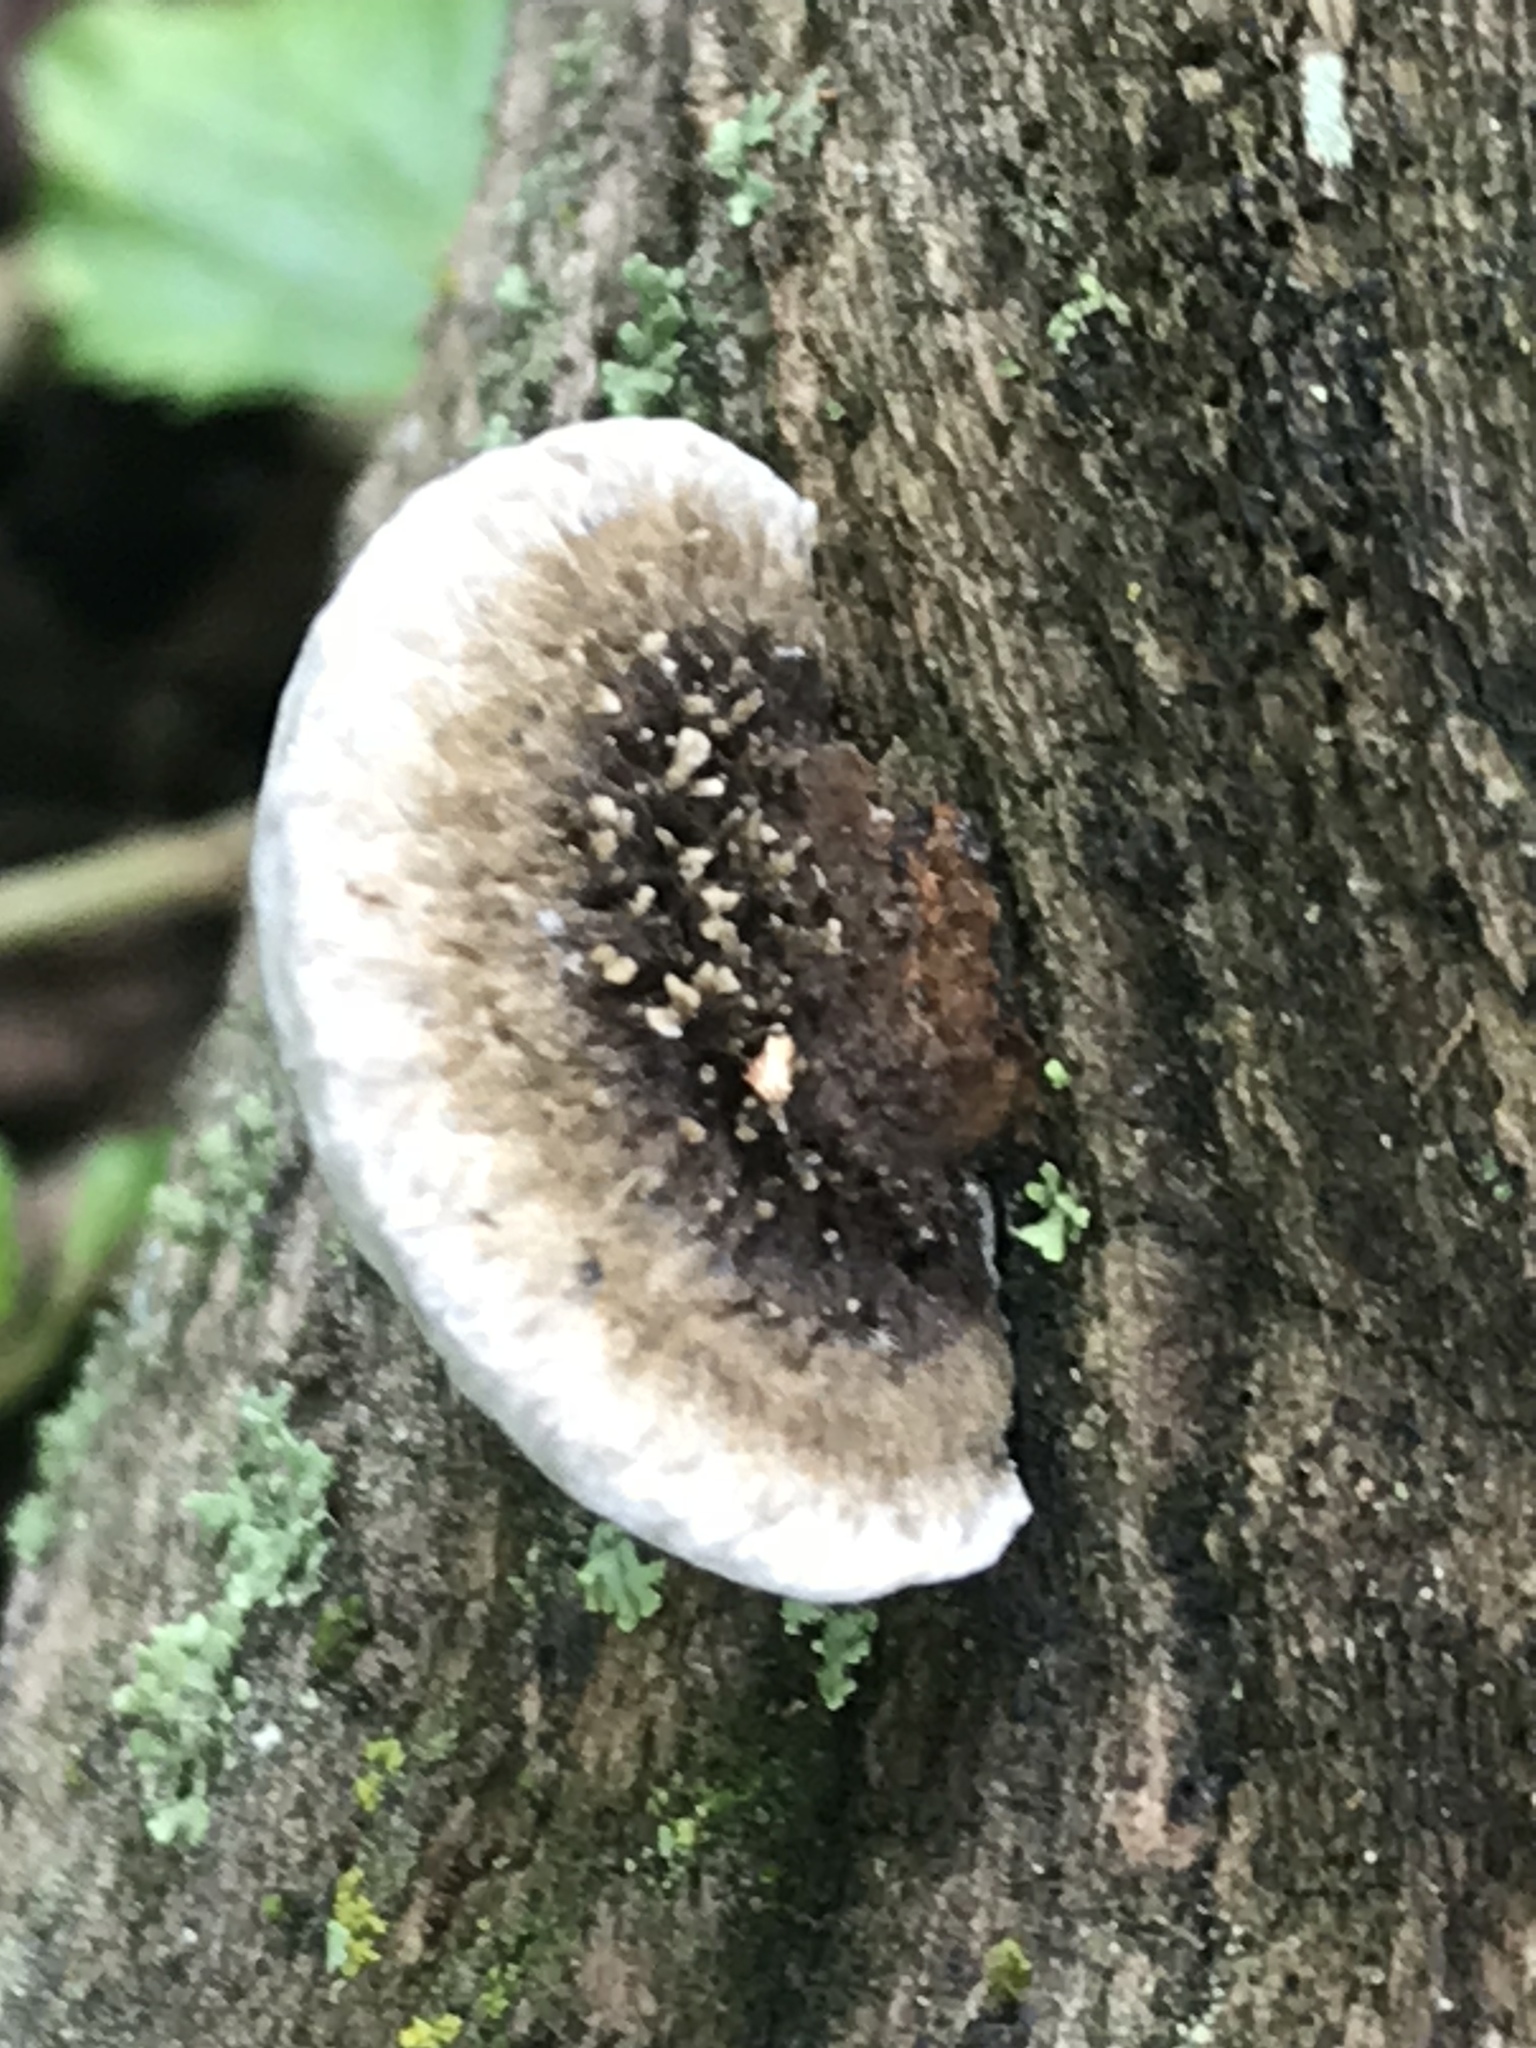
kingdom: Fungi
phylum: Basidiomycota
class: Agaricomycetes
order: Polyporales
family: Cerrenaceae
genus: Cerrena
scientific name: Cerrena hydnoides
